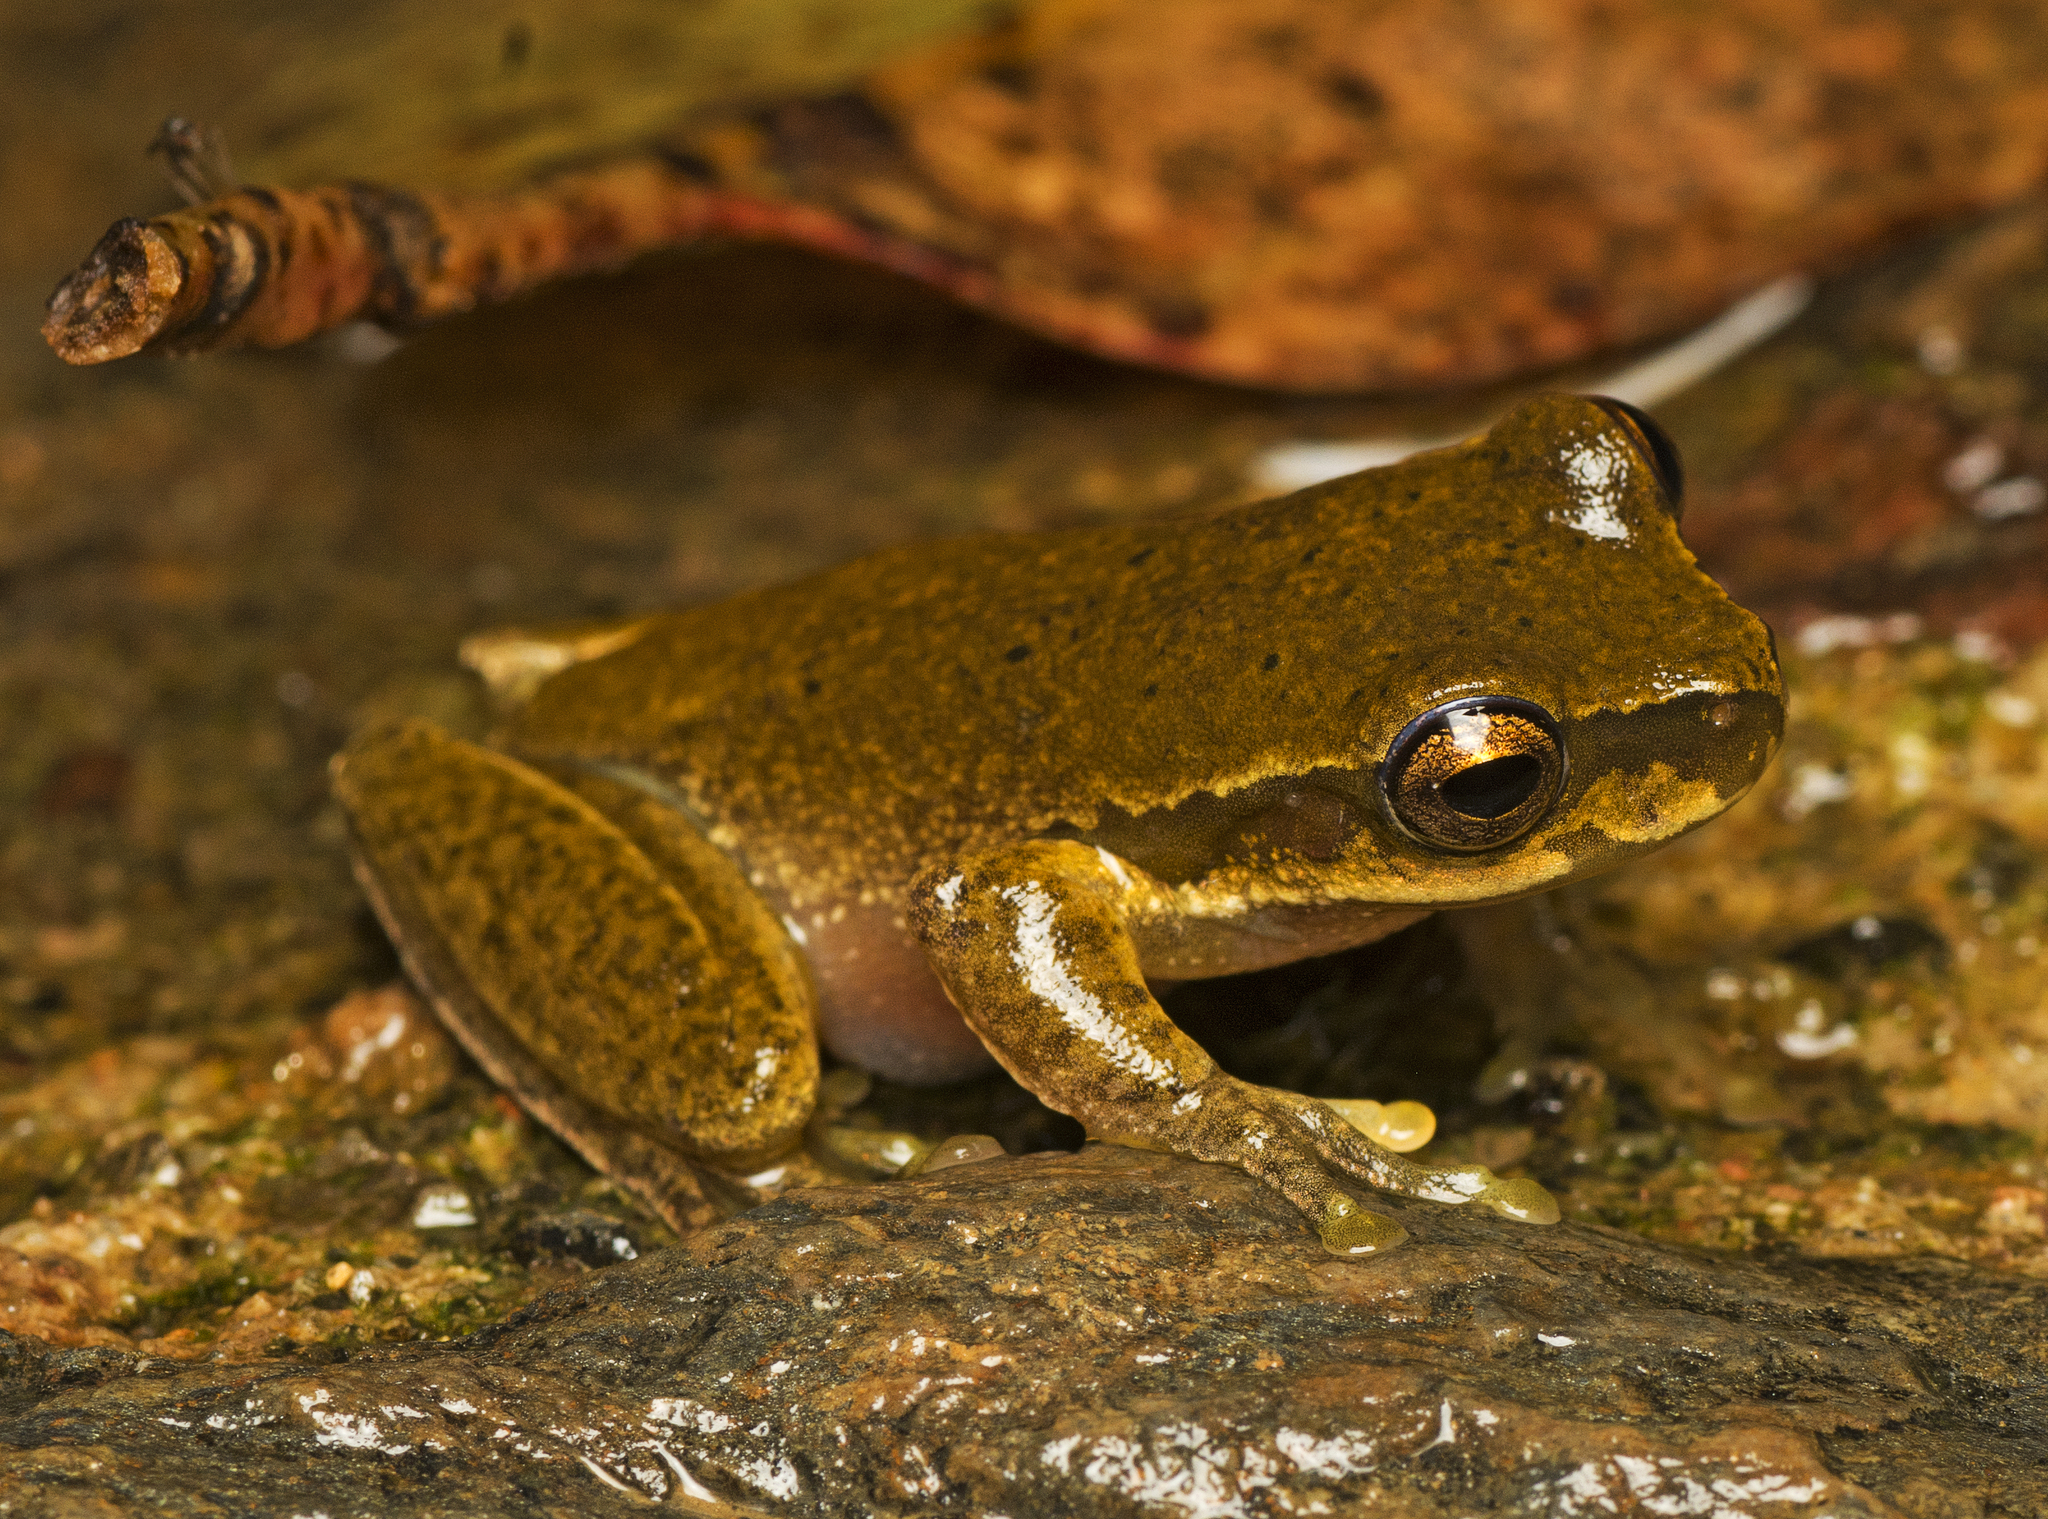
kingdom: Animalia
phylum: Chordata
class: Amphibia
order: Anura
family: Pelodryadidae
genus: Ranoidea
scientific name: Ranoidea pearsoniana
